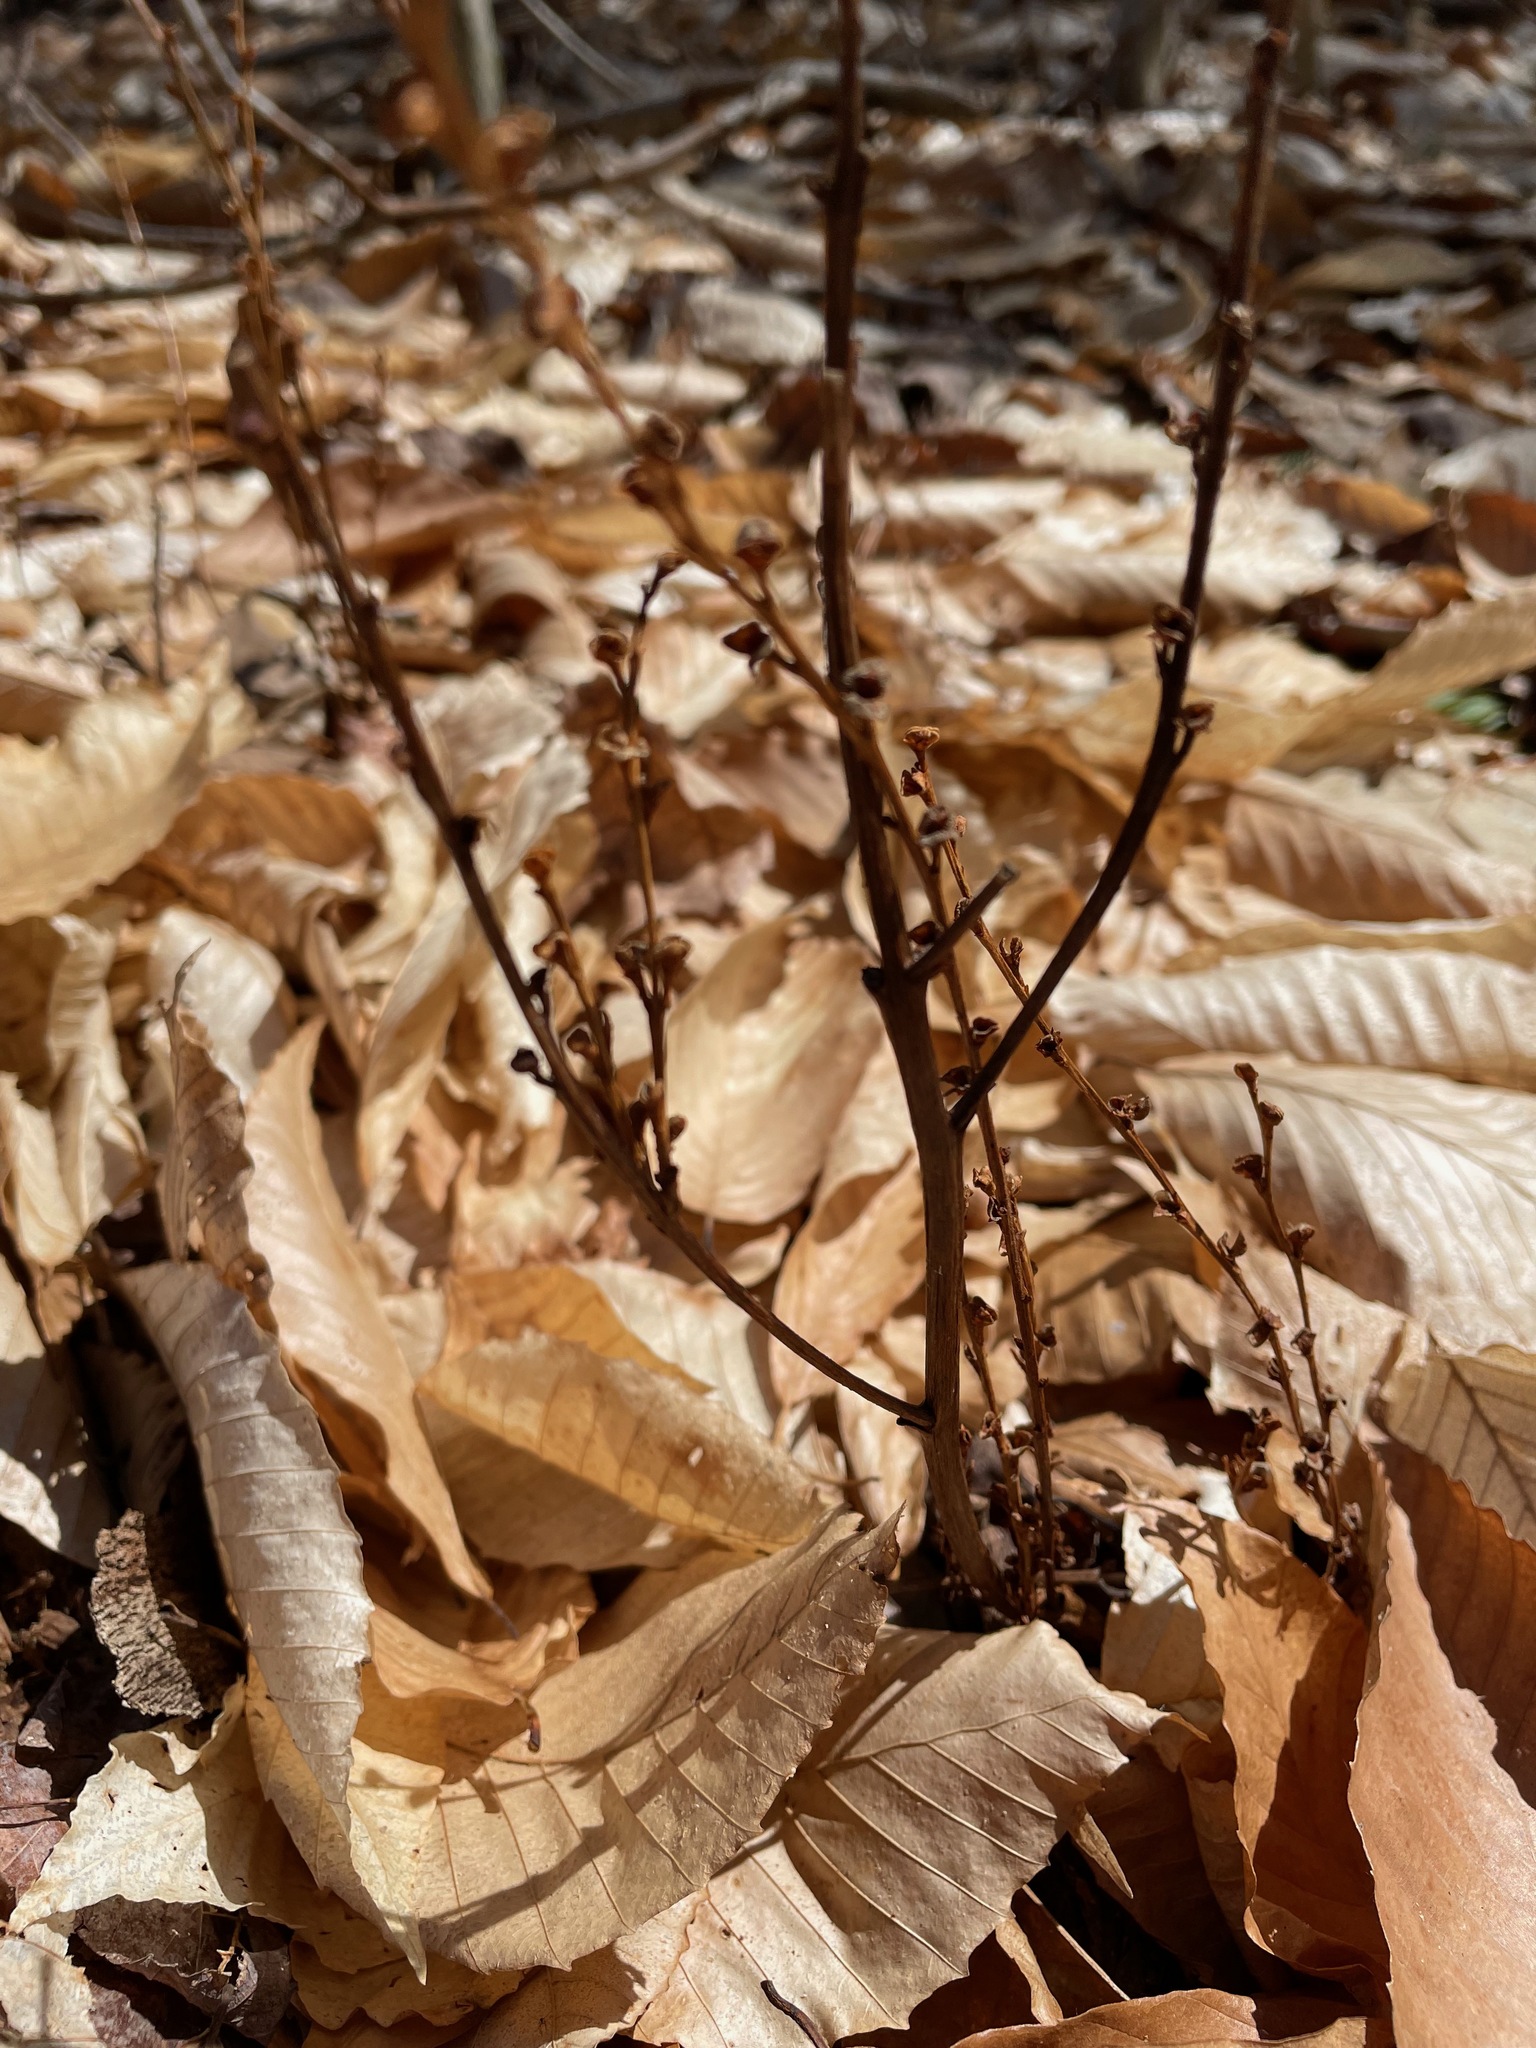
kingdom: Plantae
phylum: Tracheophyta
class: Magnoliopsida
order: Lamiales
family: Orobanchaceae
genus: Epifagus
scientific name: Epifagus virginiana
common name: Beechdrops
